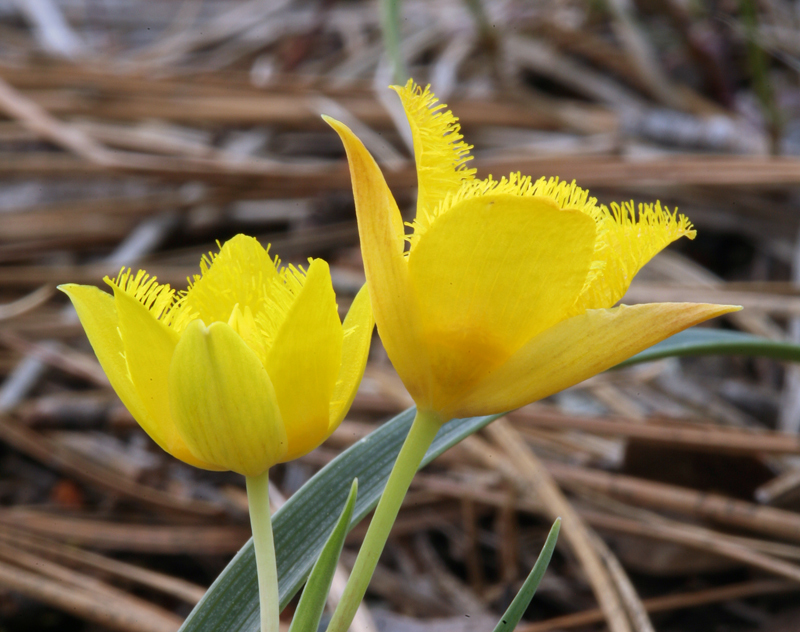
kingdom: Plantae
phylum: Tracheophyta
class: Liliopsida
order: Liliales
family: Liliaceae
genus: Calochortus
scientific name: Calochortus monophyllus
